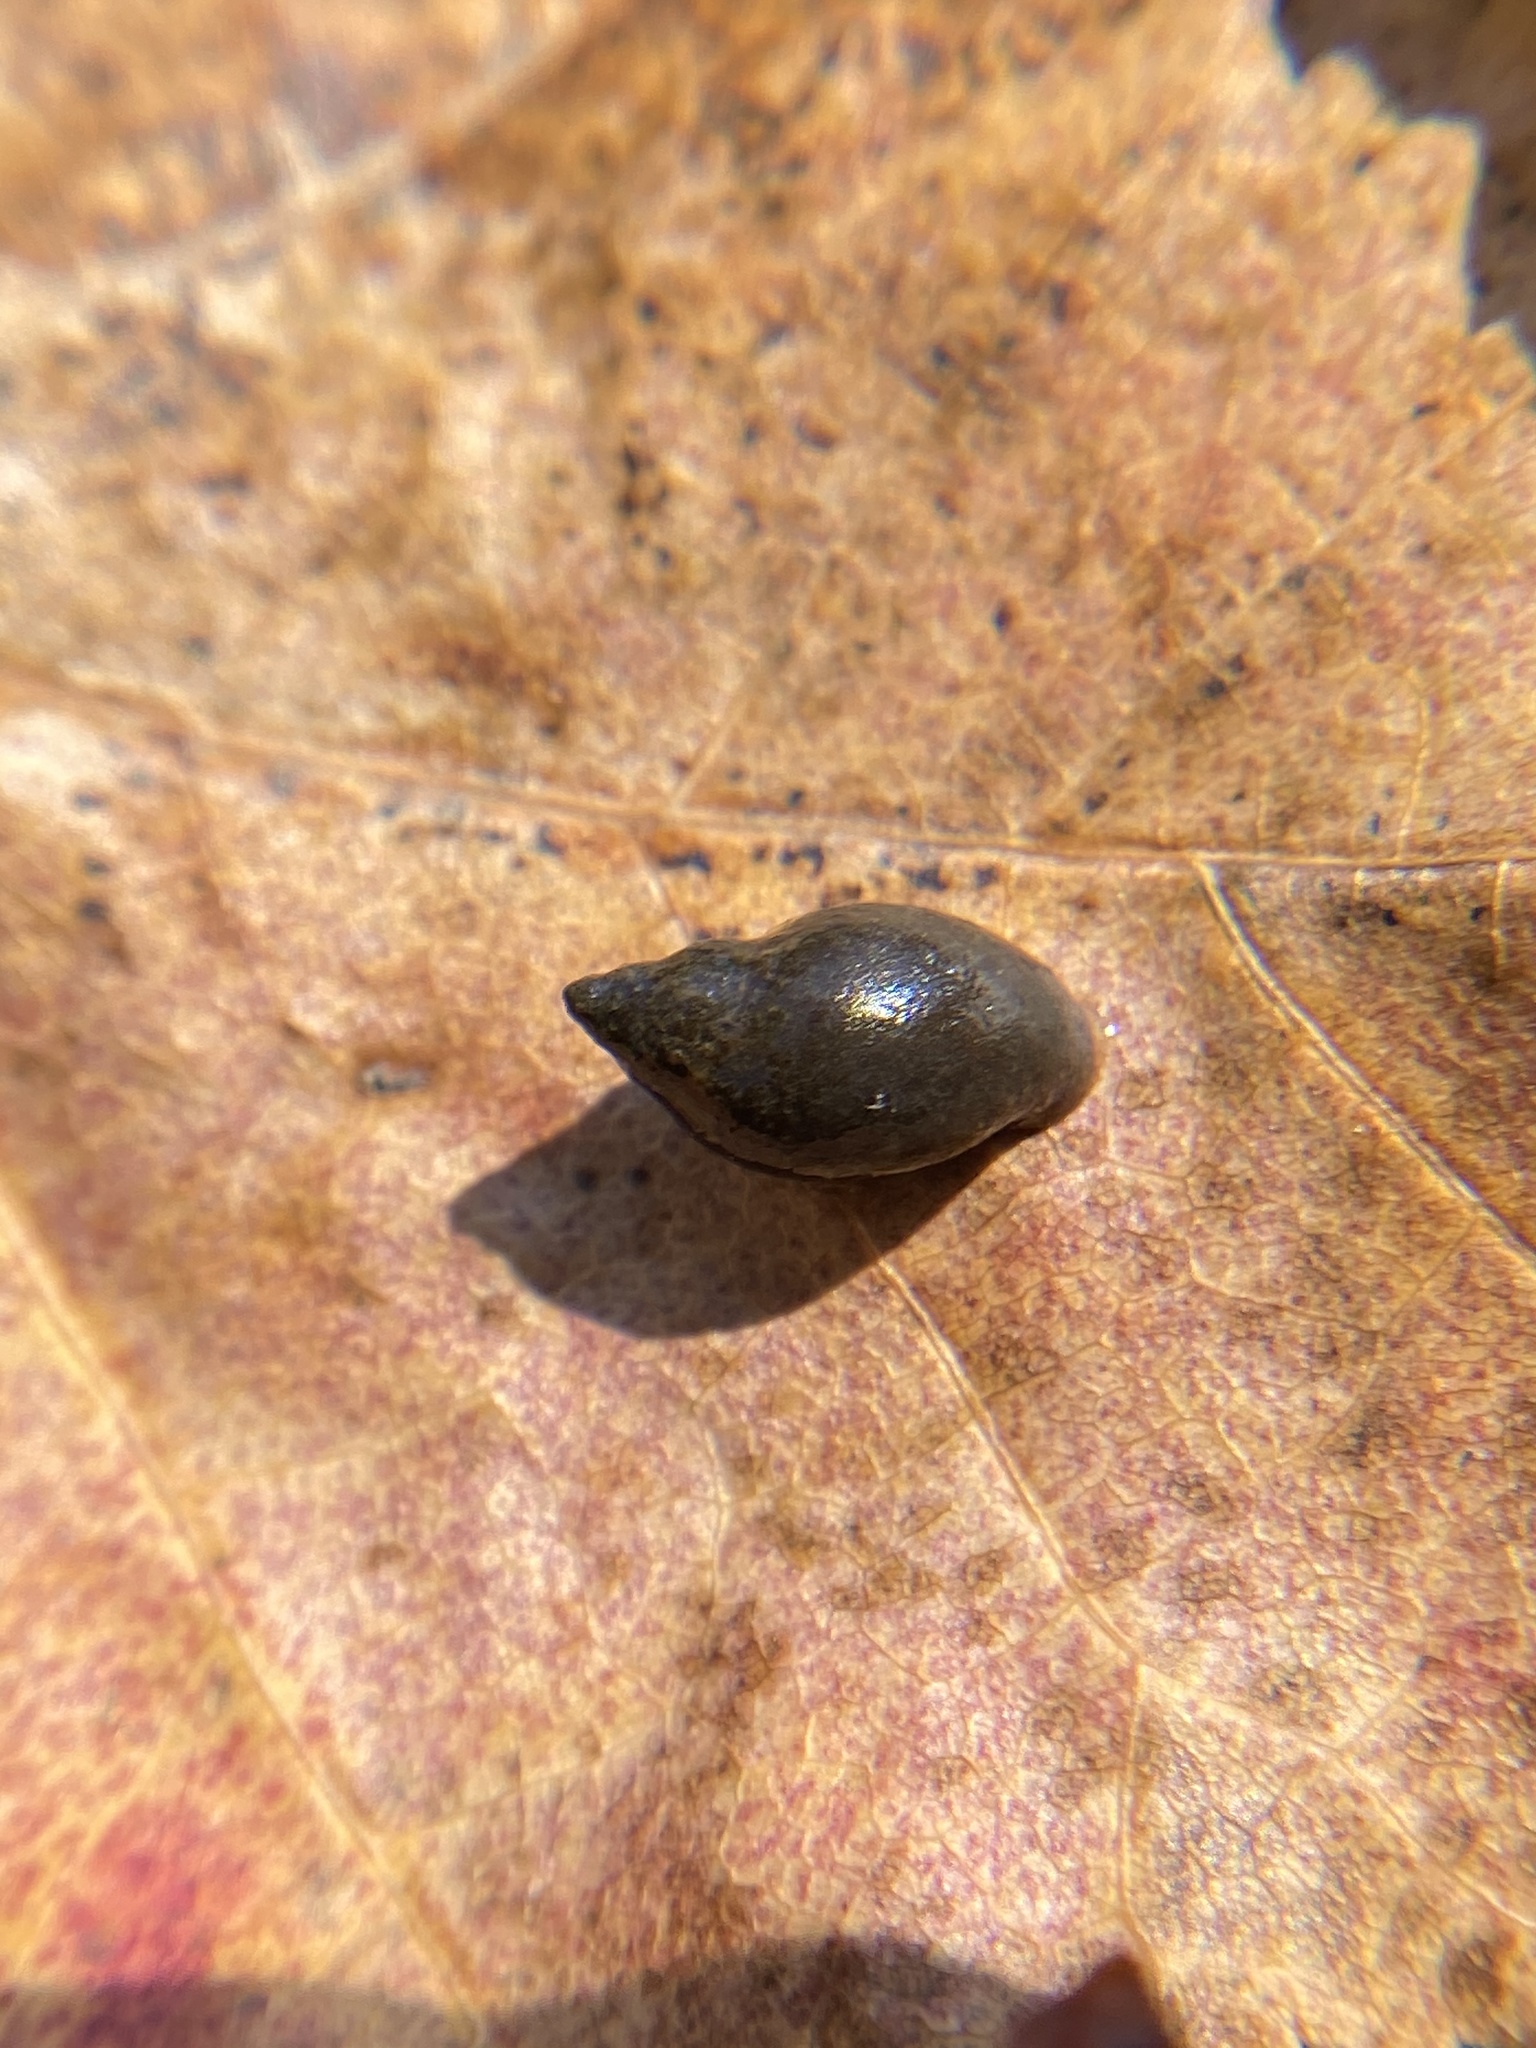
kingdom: Animalia
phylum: Mollusca
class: Gastropoda
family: Physidae
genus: Physella
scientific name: Physella acuta
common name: European physa
